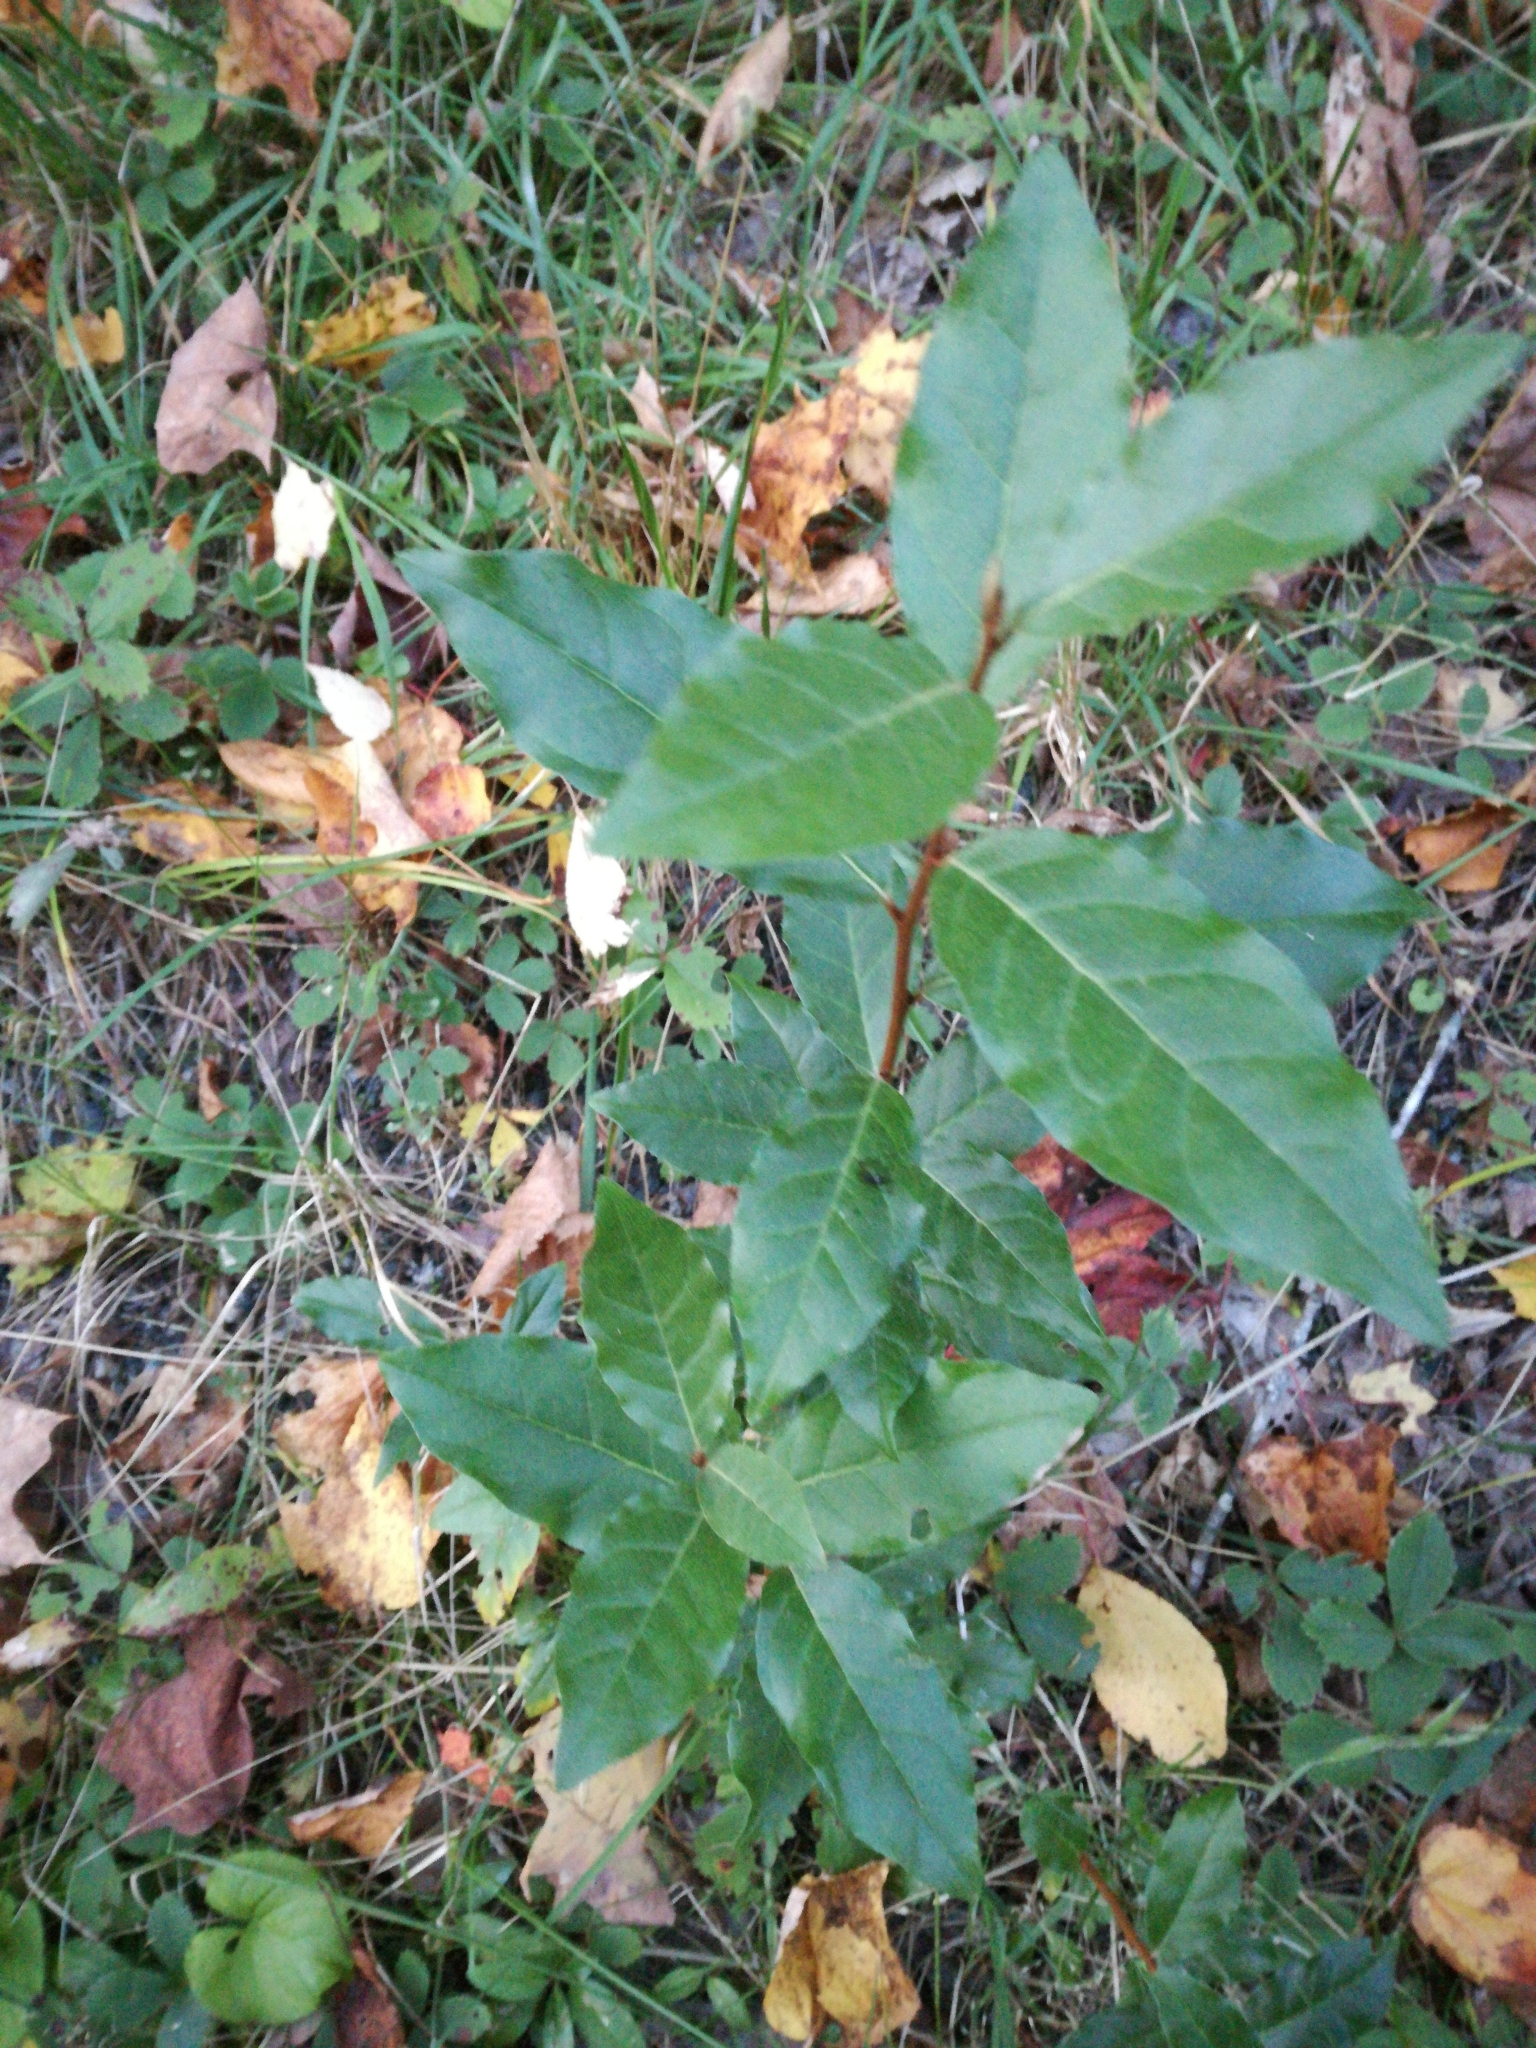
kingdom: Plantae
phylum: Tracheophyta
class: Magnoliopsida
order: Rosales
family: Elaeagnaceae
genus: Elaeagnus
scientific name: Elaeagnus umbellata
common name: Autumn olive
